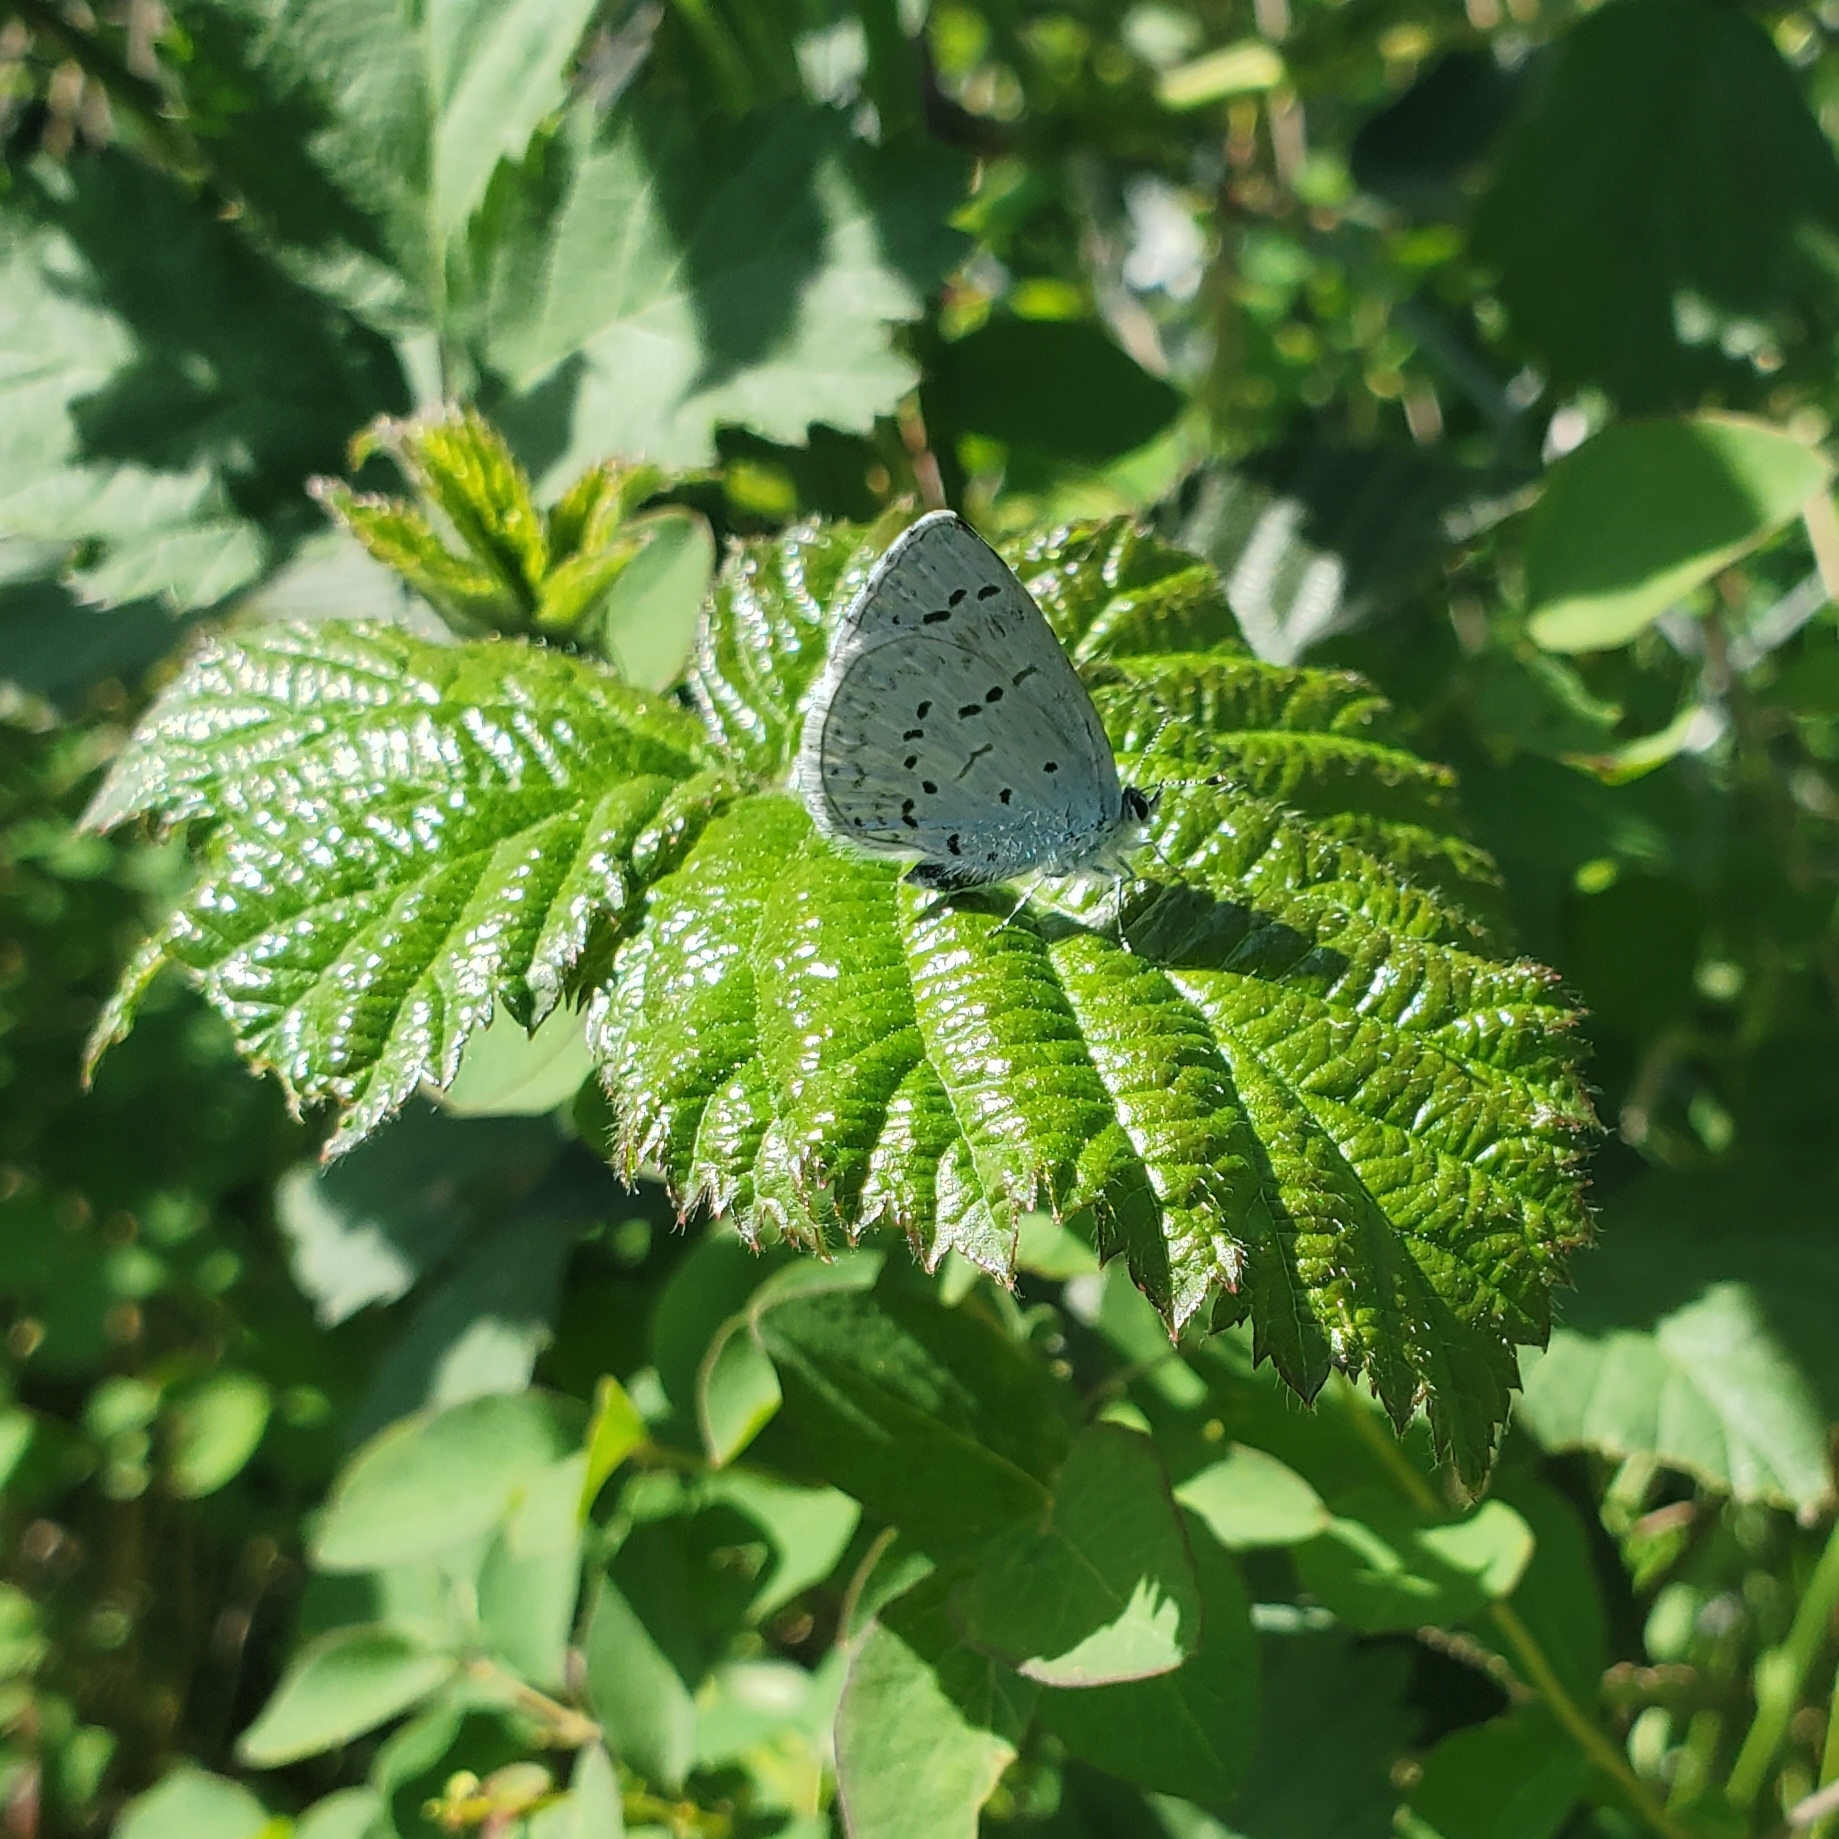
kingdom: Animalia
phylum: Arthropoda
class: Insecta
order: Lepidoptera
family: Lycaenidae
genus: Celastrina
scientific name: Celastrina ladon
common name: Spring azure
